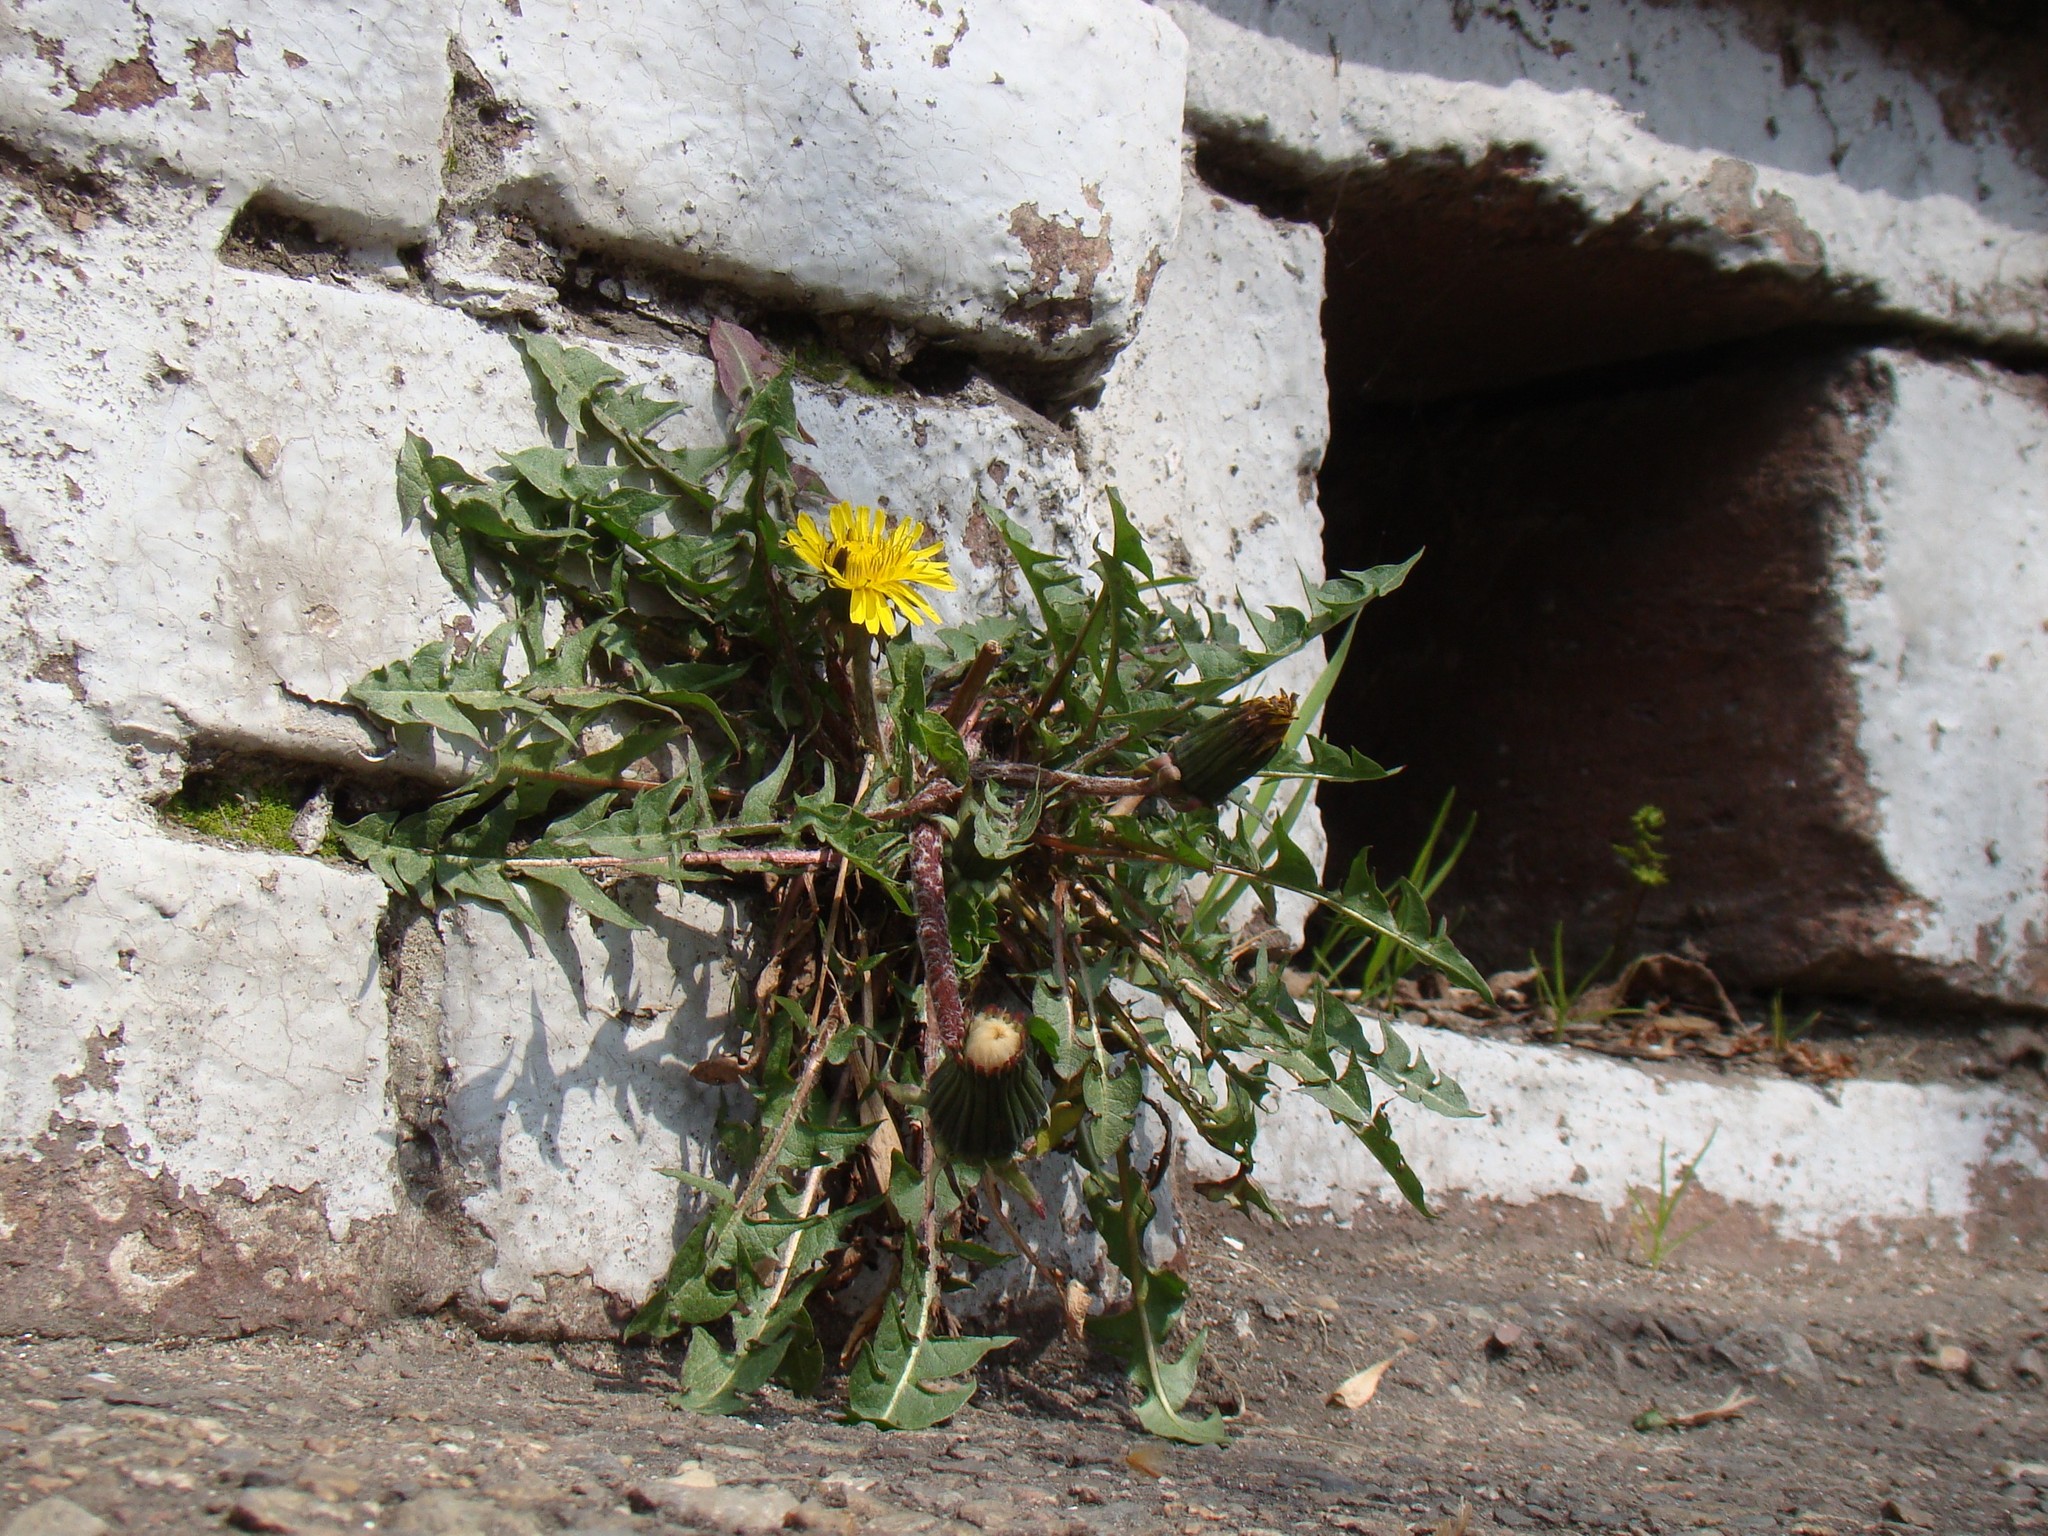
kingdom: Plantae
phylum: Tracheophyta
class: Magnoliopsida
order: Asterales
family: Asteraceae
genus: Taraxacum
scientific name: Taraxacum officinale
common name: Common dandelion
